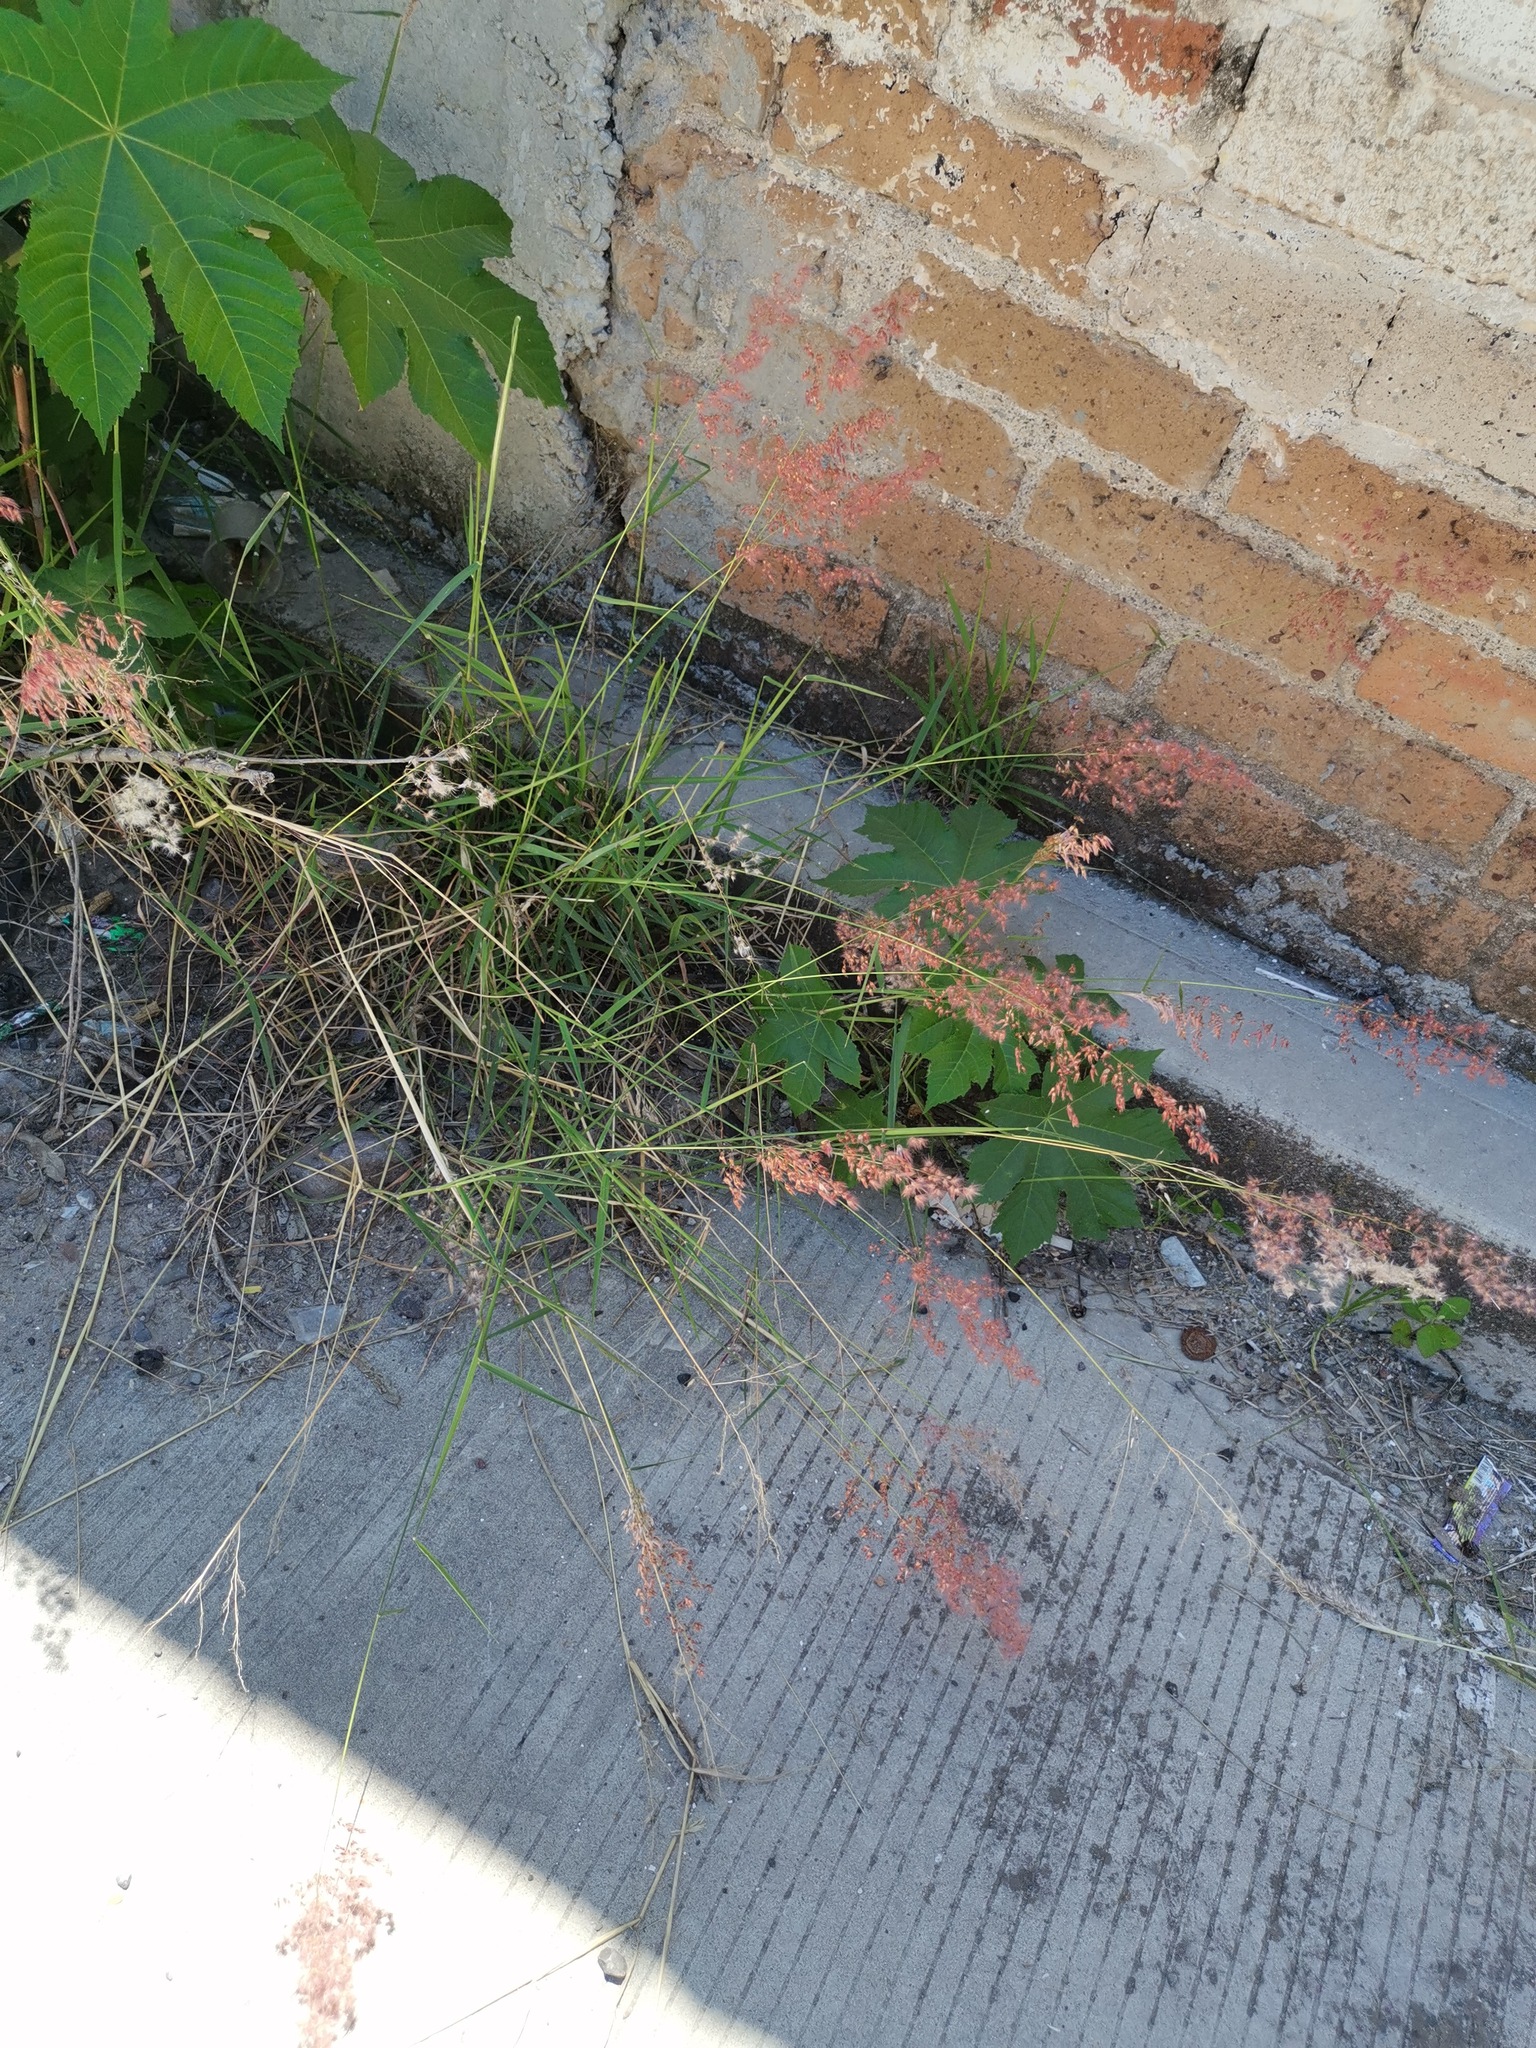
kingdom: Plantae
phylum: Tracheophyta
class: Liliopsida
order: Poales
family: Poaceae
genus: Melinis
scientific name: Melinis repens
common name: Rose natal grass
